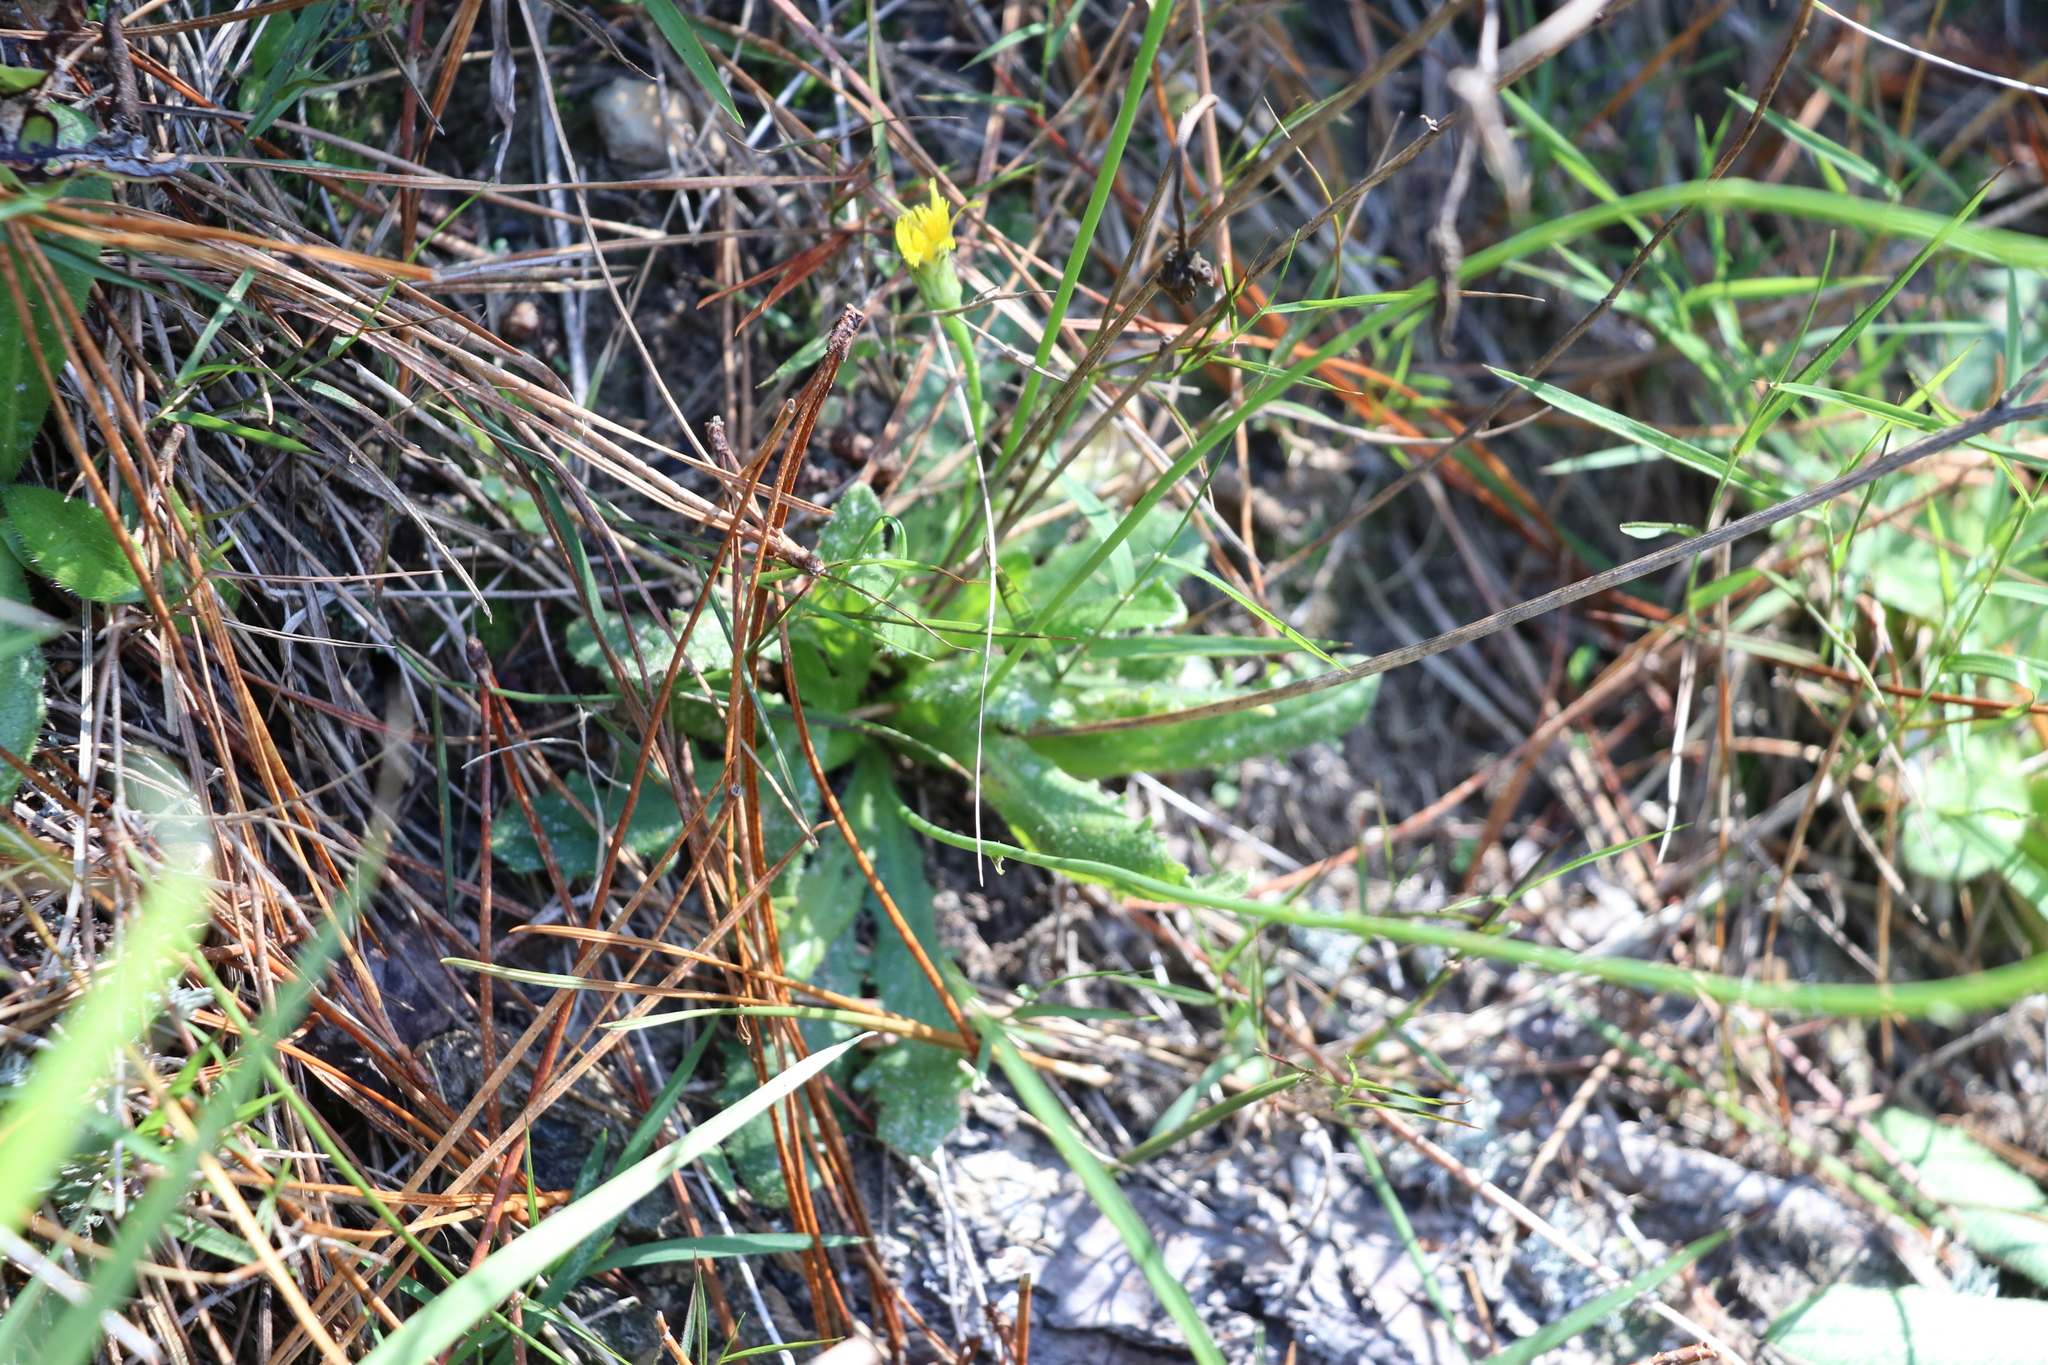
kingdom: Plantae
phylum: Tracheophyta
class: Magnoliopsida
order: Asterales
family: Asteraceae
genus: Hypochaeris
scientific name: Hypochaeris radicata
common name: Flatweed
